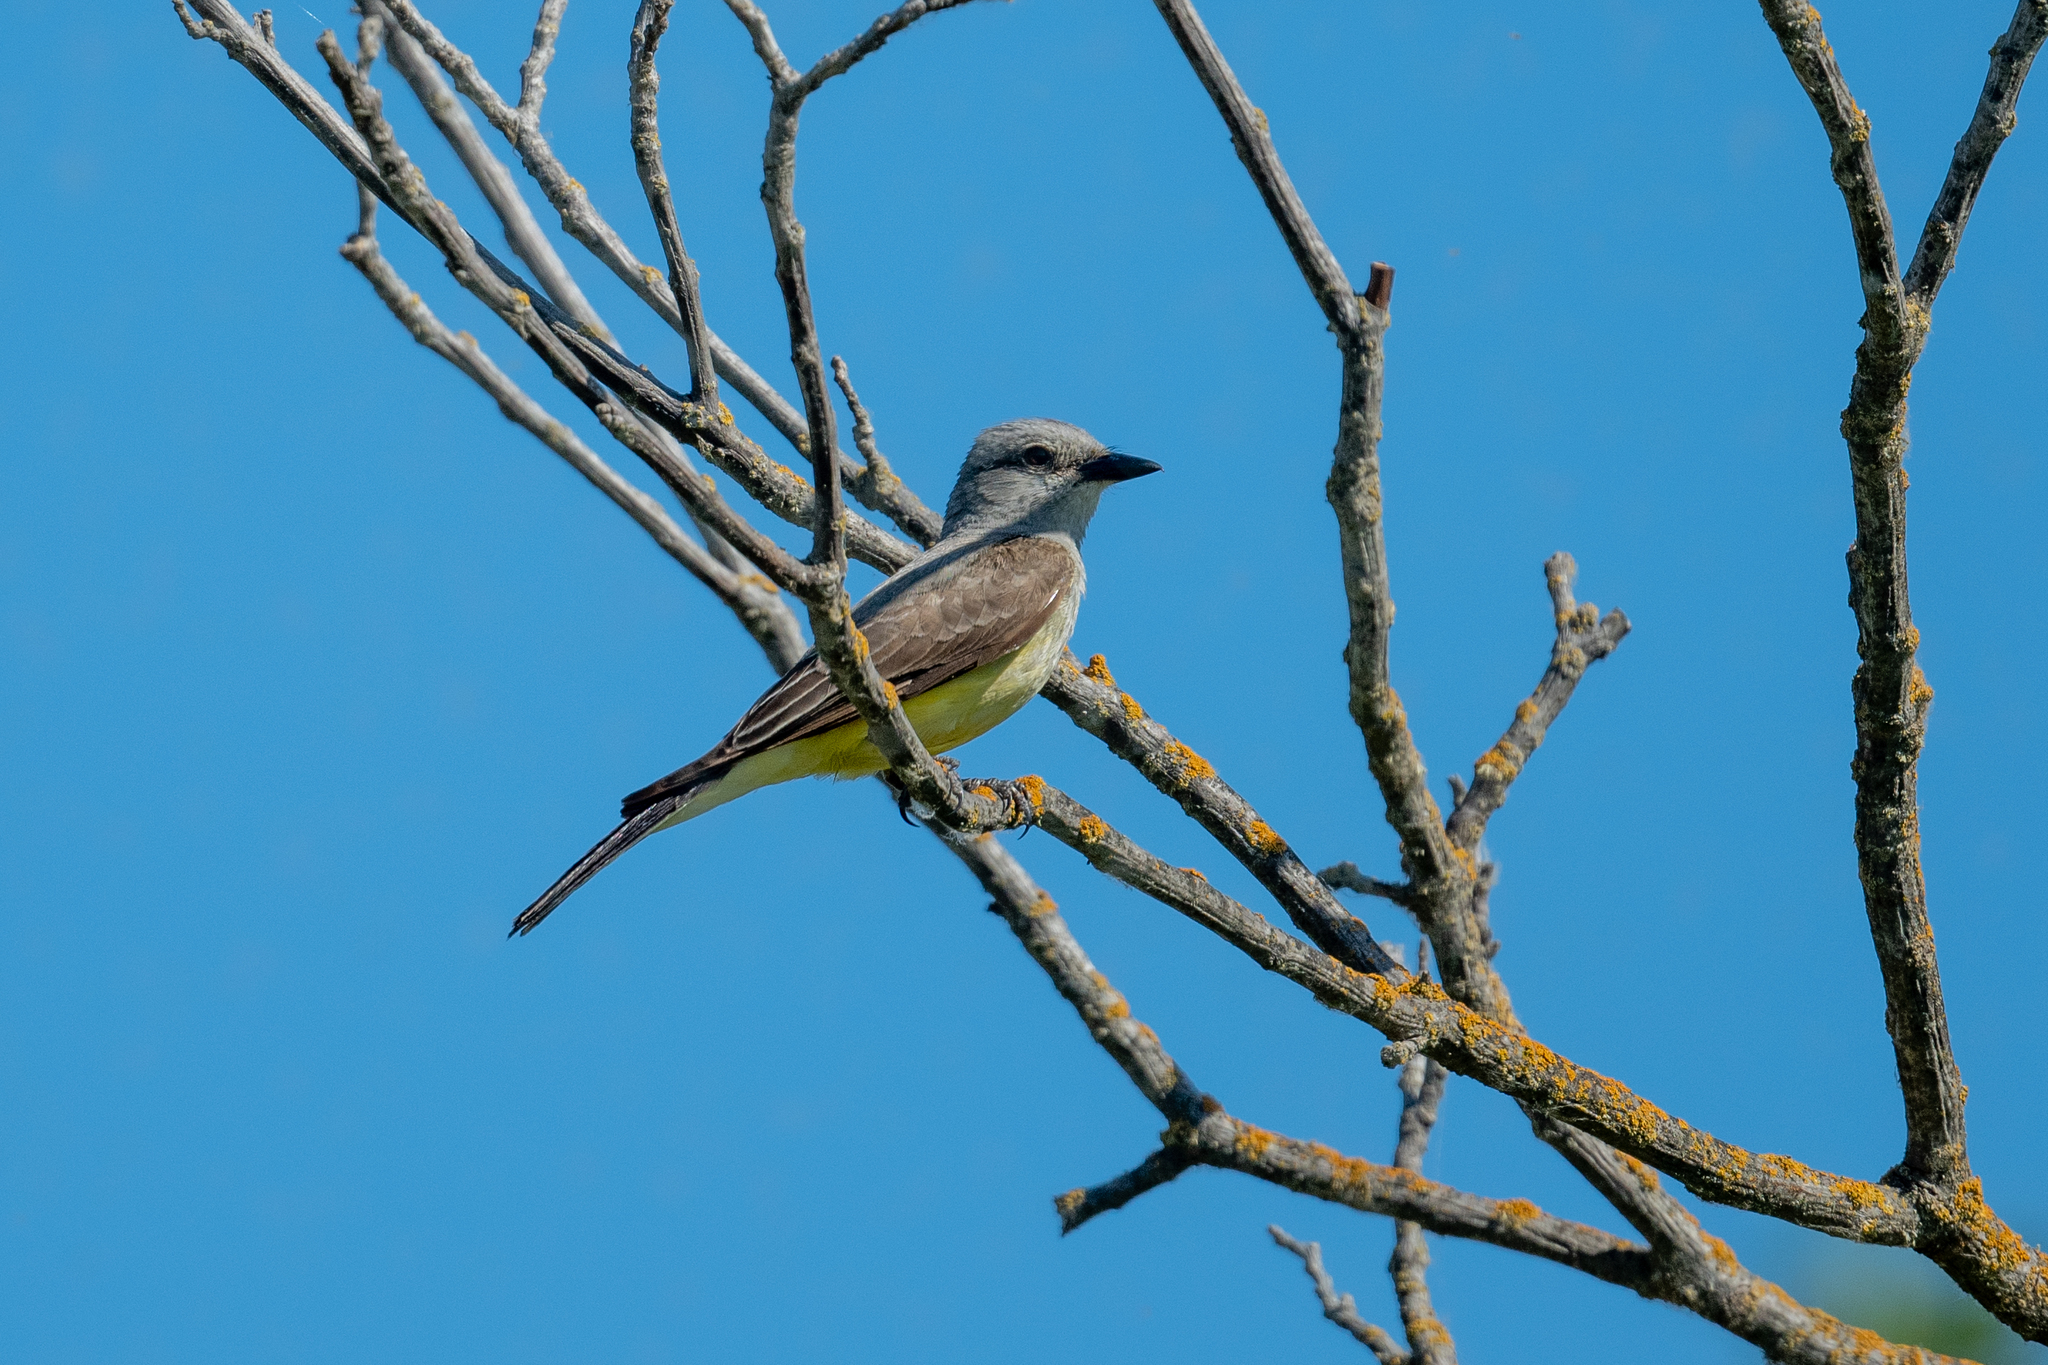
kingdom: Animalia
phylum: Chordata
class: Aves
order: Passeriformes
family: Tyrannidae
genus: Tyrannus
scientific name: Tyrannus verticalis
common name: Western kingbird
